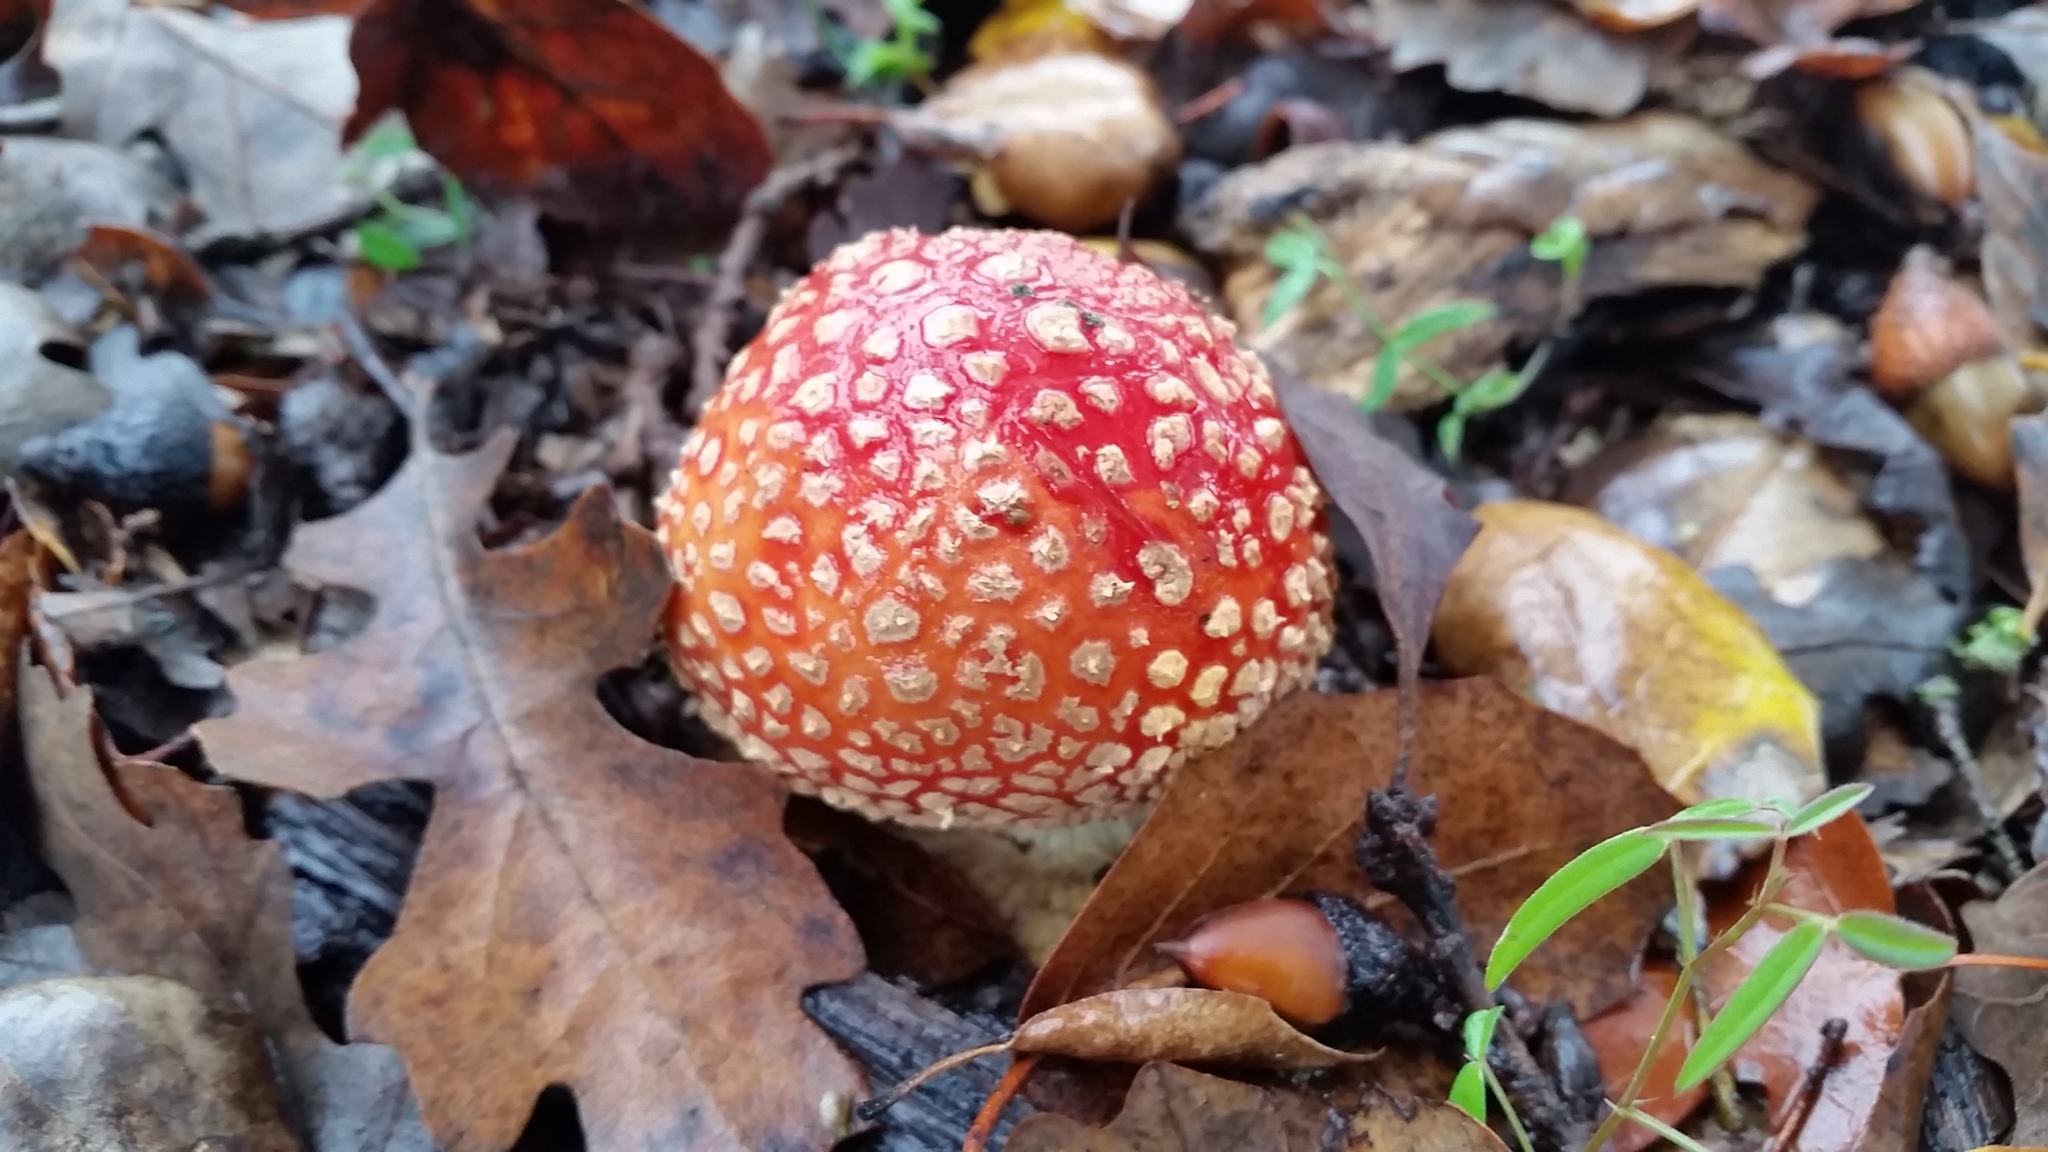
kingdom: Fungi
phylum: Basidiomycota
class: Agaricomycetes
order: Agaricales
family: Amanitaceae
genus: Amanita
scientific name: Amanita muscaria
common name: Fly agaric
